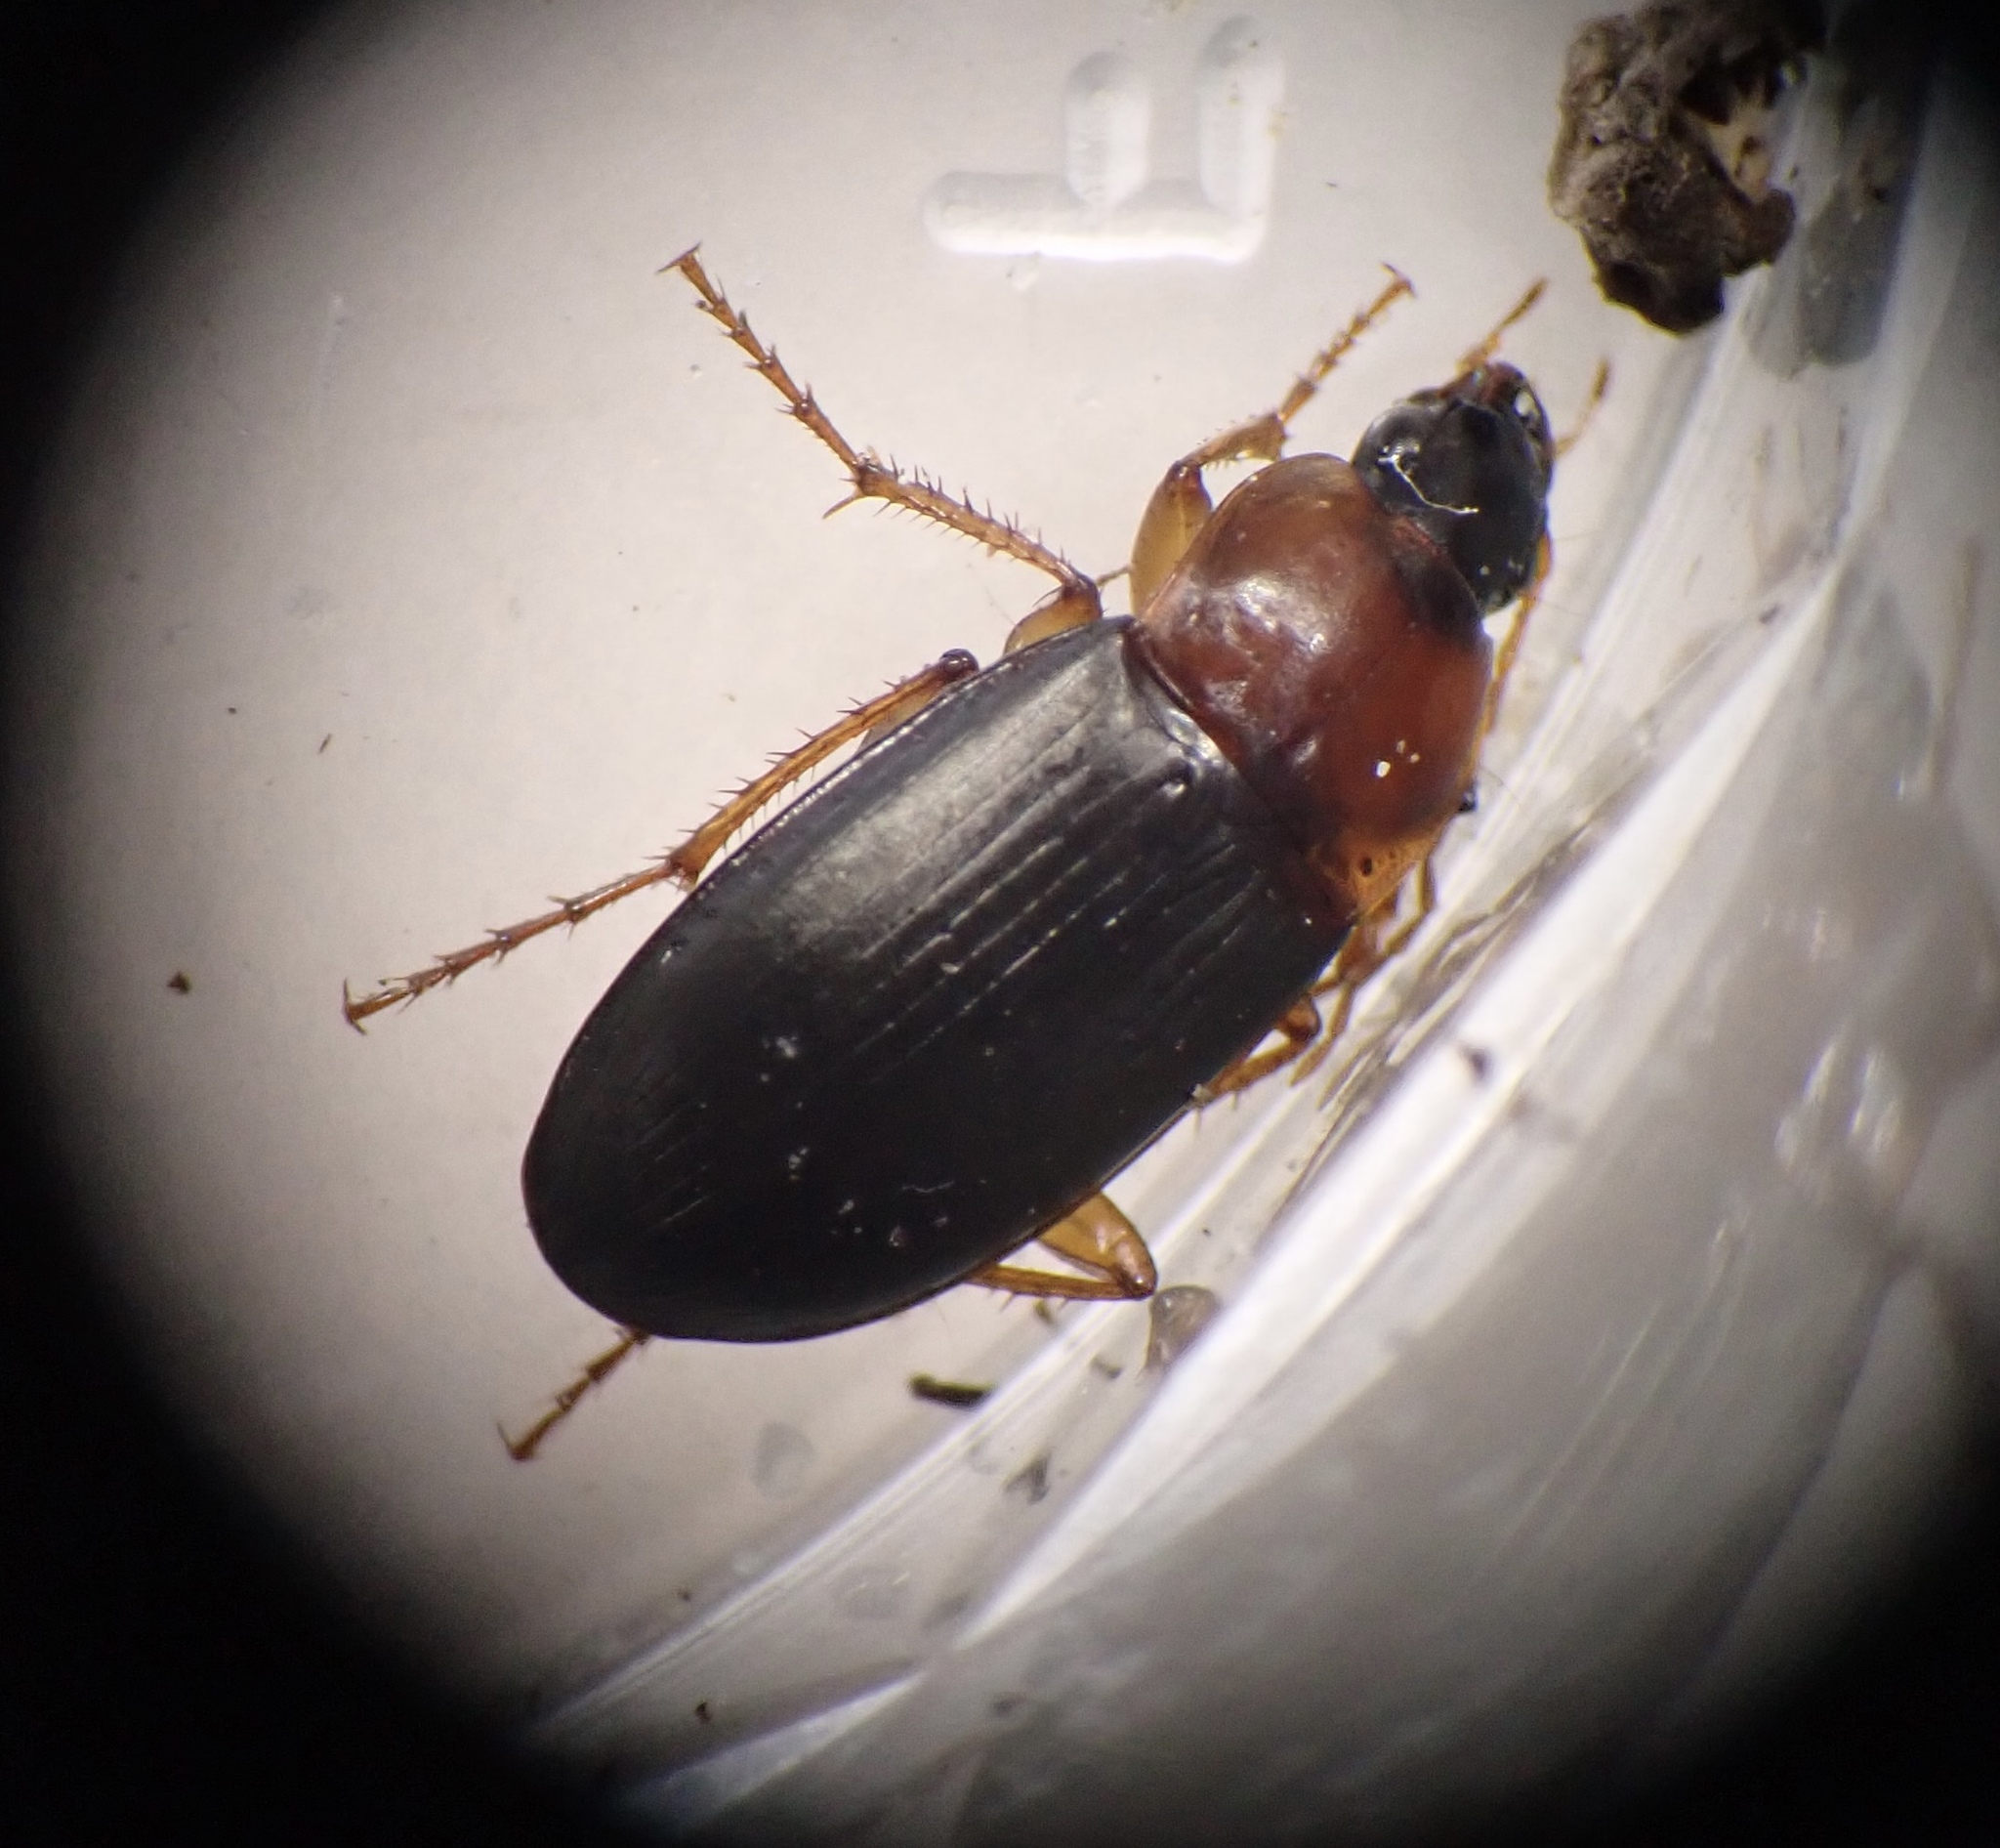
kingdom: Animalia
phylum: Arthropoda
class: Insecta
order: Coleoptera
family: Carabidae
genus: Calathus
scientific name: Calathus melanocephalus
